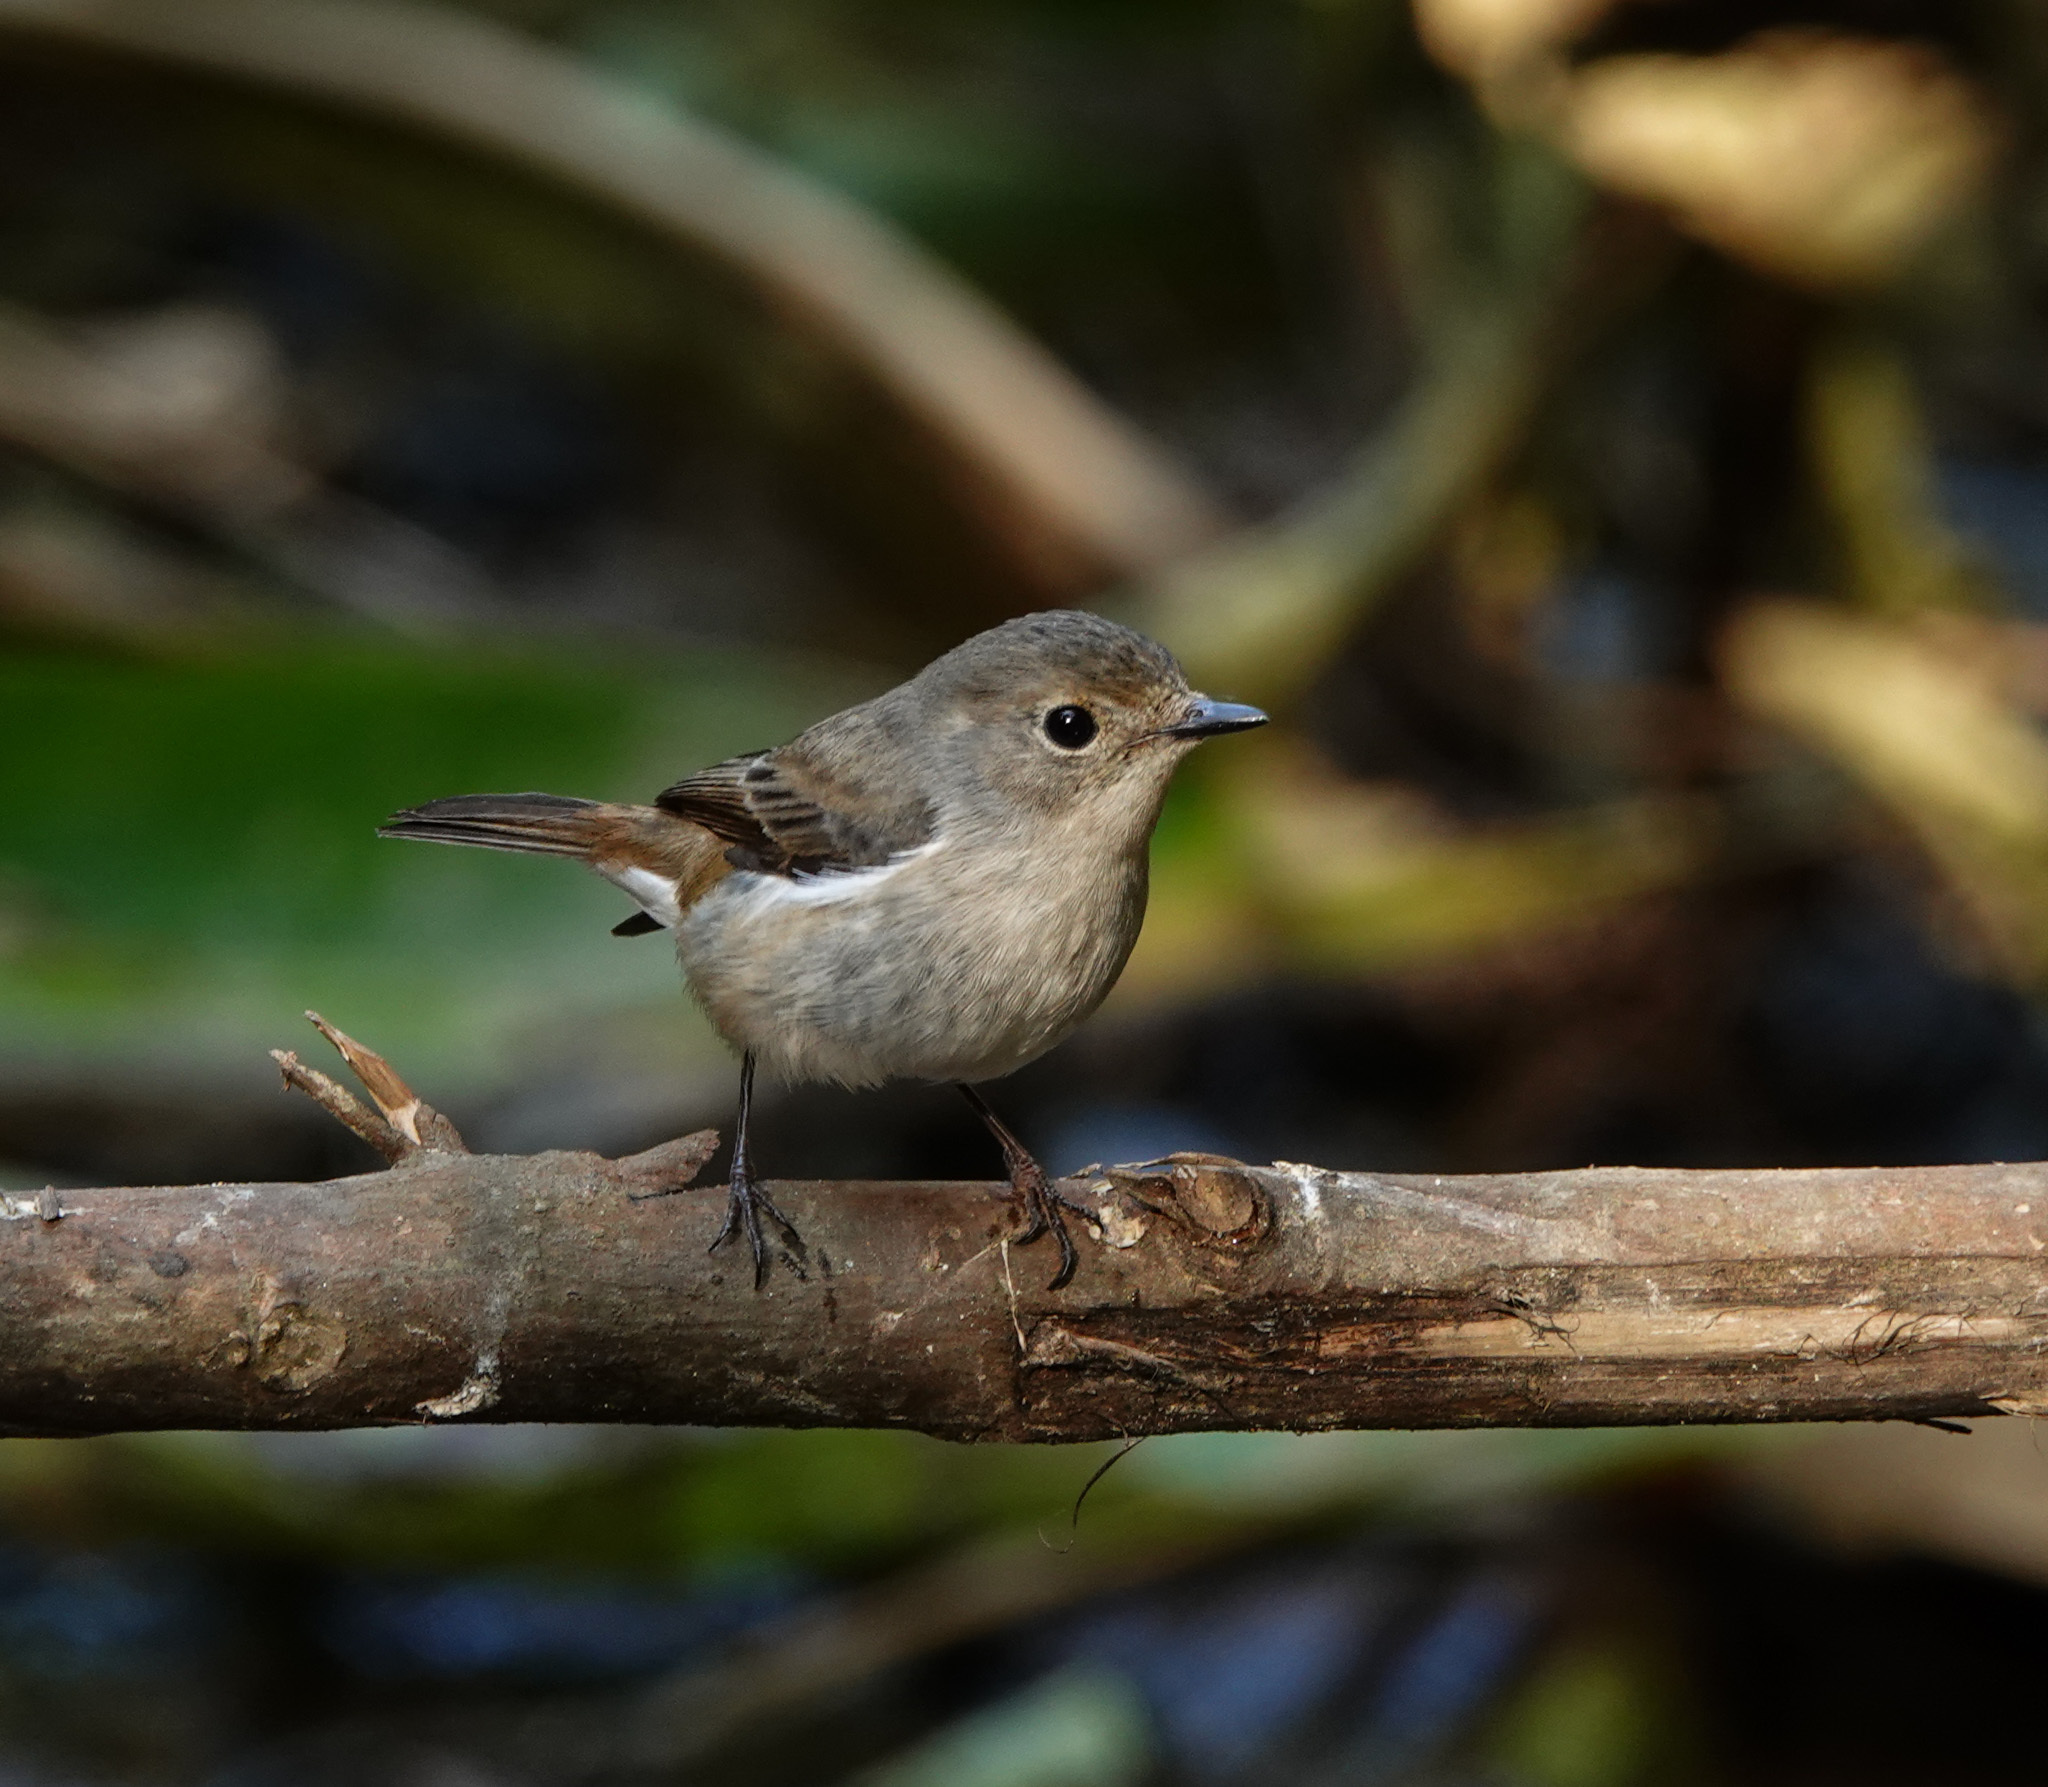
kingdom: Animalia
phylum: Chordata
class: Aves
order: Passeriformes
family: Muscicapidae
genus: Ficedula
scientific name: Ficedula westermanni
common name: Little pied flycatcher
